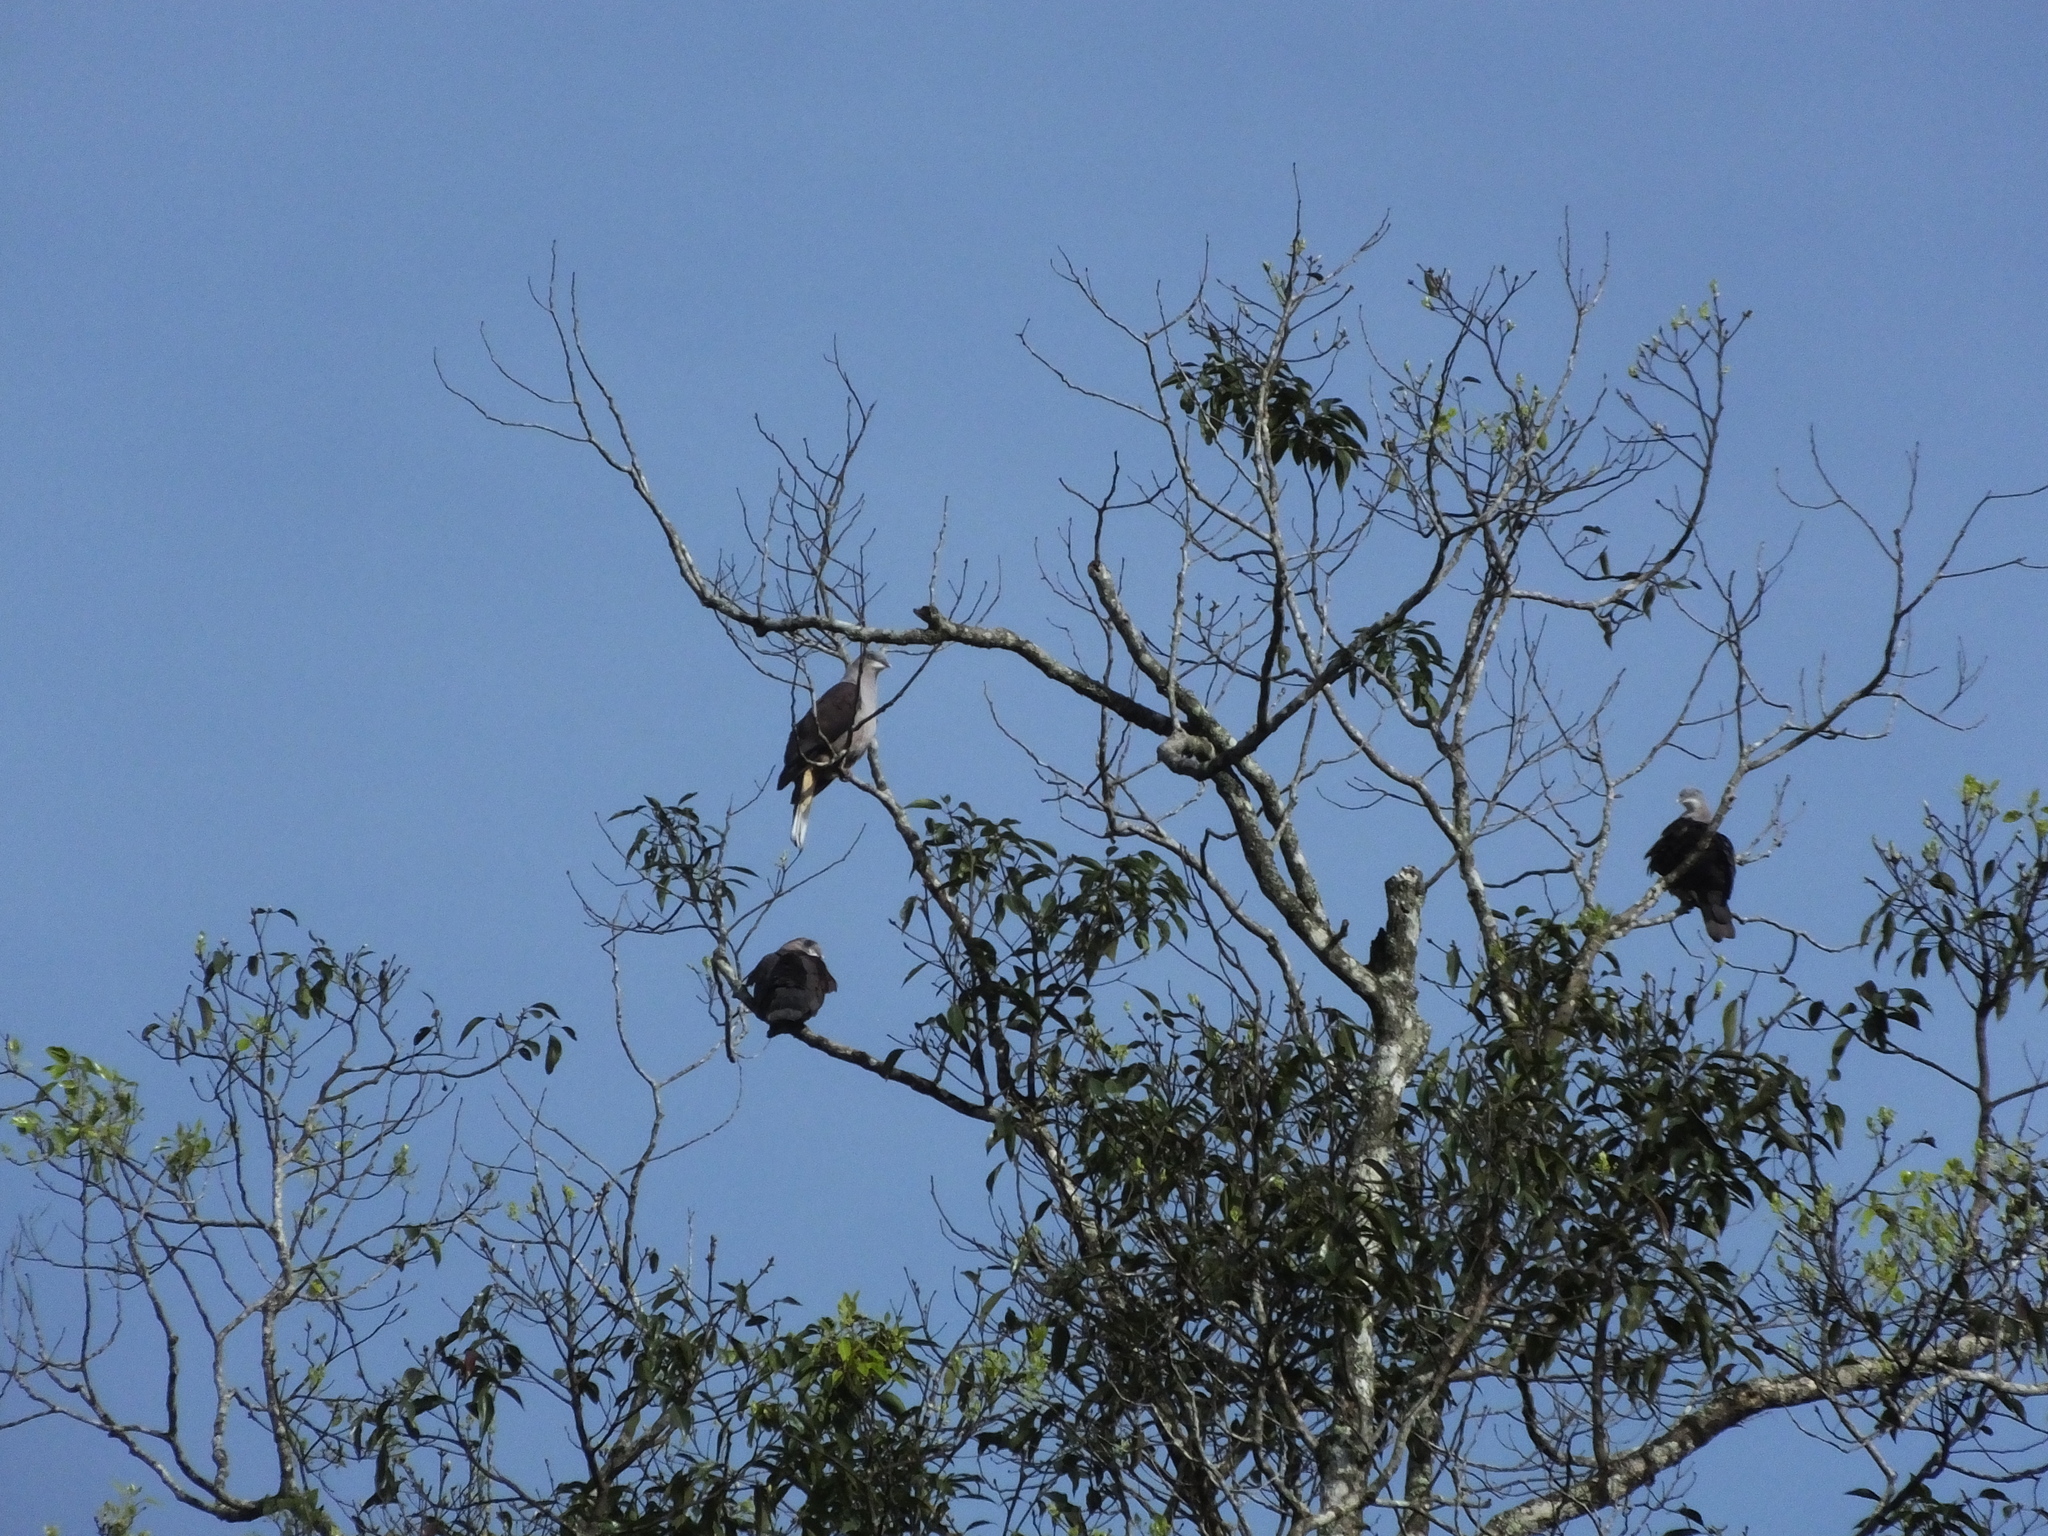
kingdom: Animalia
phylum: Chordata
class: Aves
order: Columbiformes
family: Columbidae
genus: Ducula
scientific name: Ducula badia
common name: Mountain imperial pigeon
